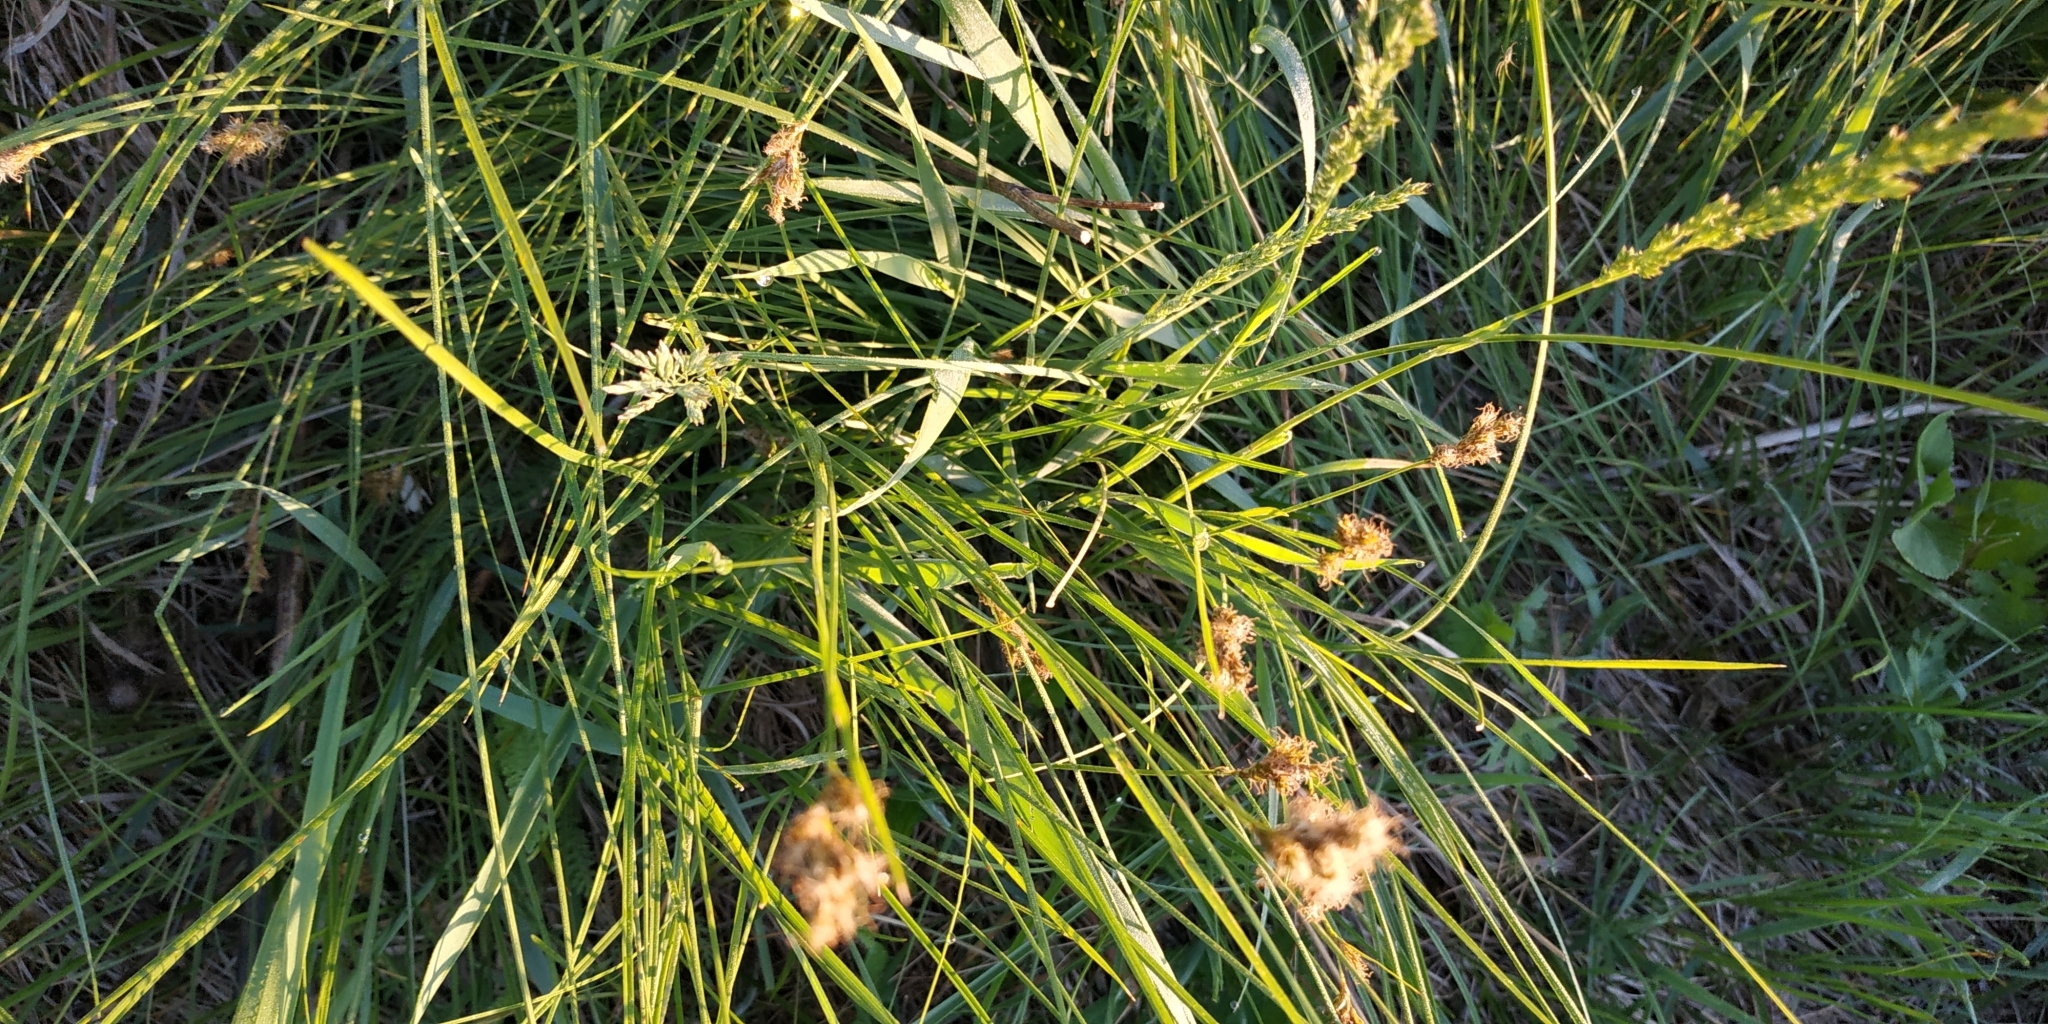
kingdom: Plantae
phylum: Tracheophyta
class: Liliopsida
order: Poales
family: Cyperaceae
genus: Carex
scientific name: Carex leporina
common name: Oval sedge
